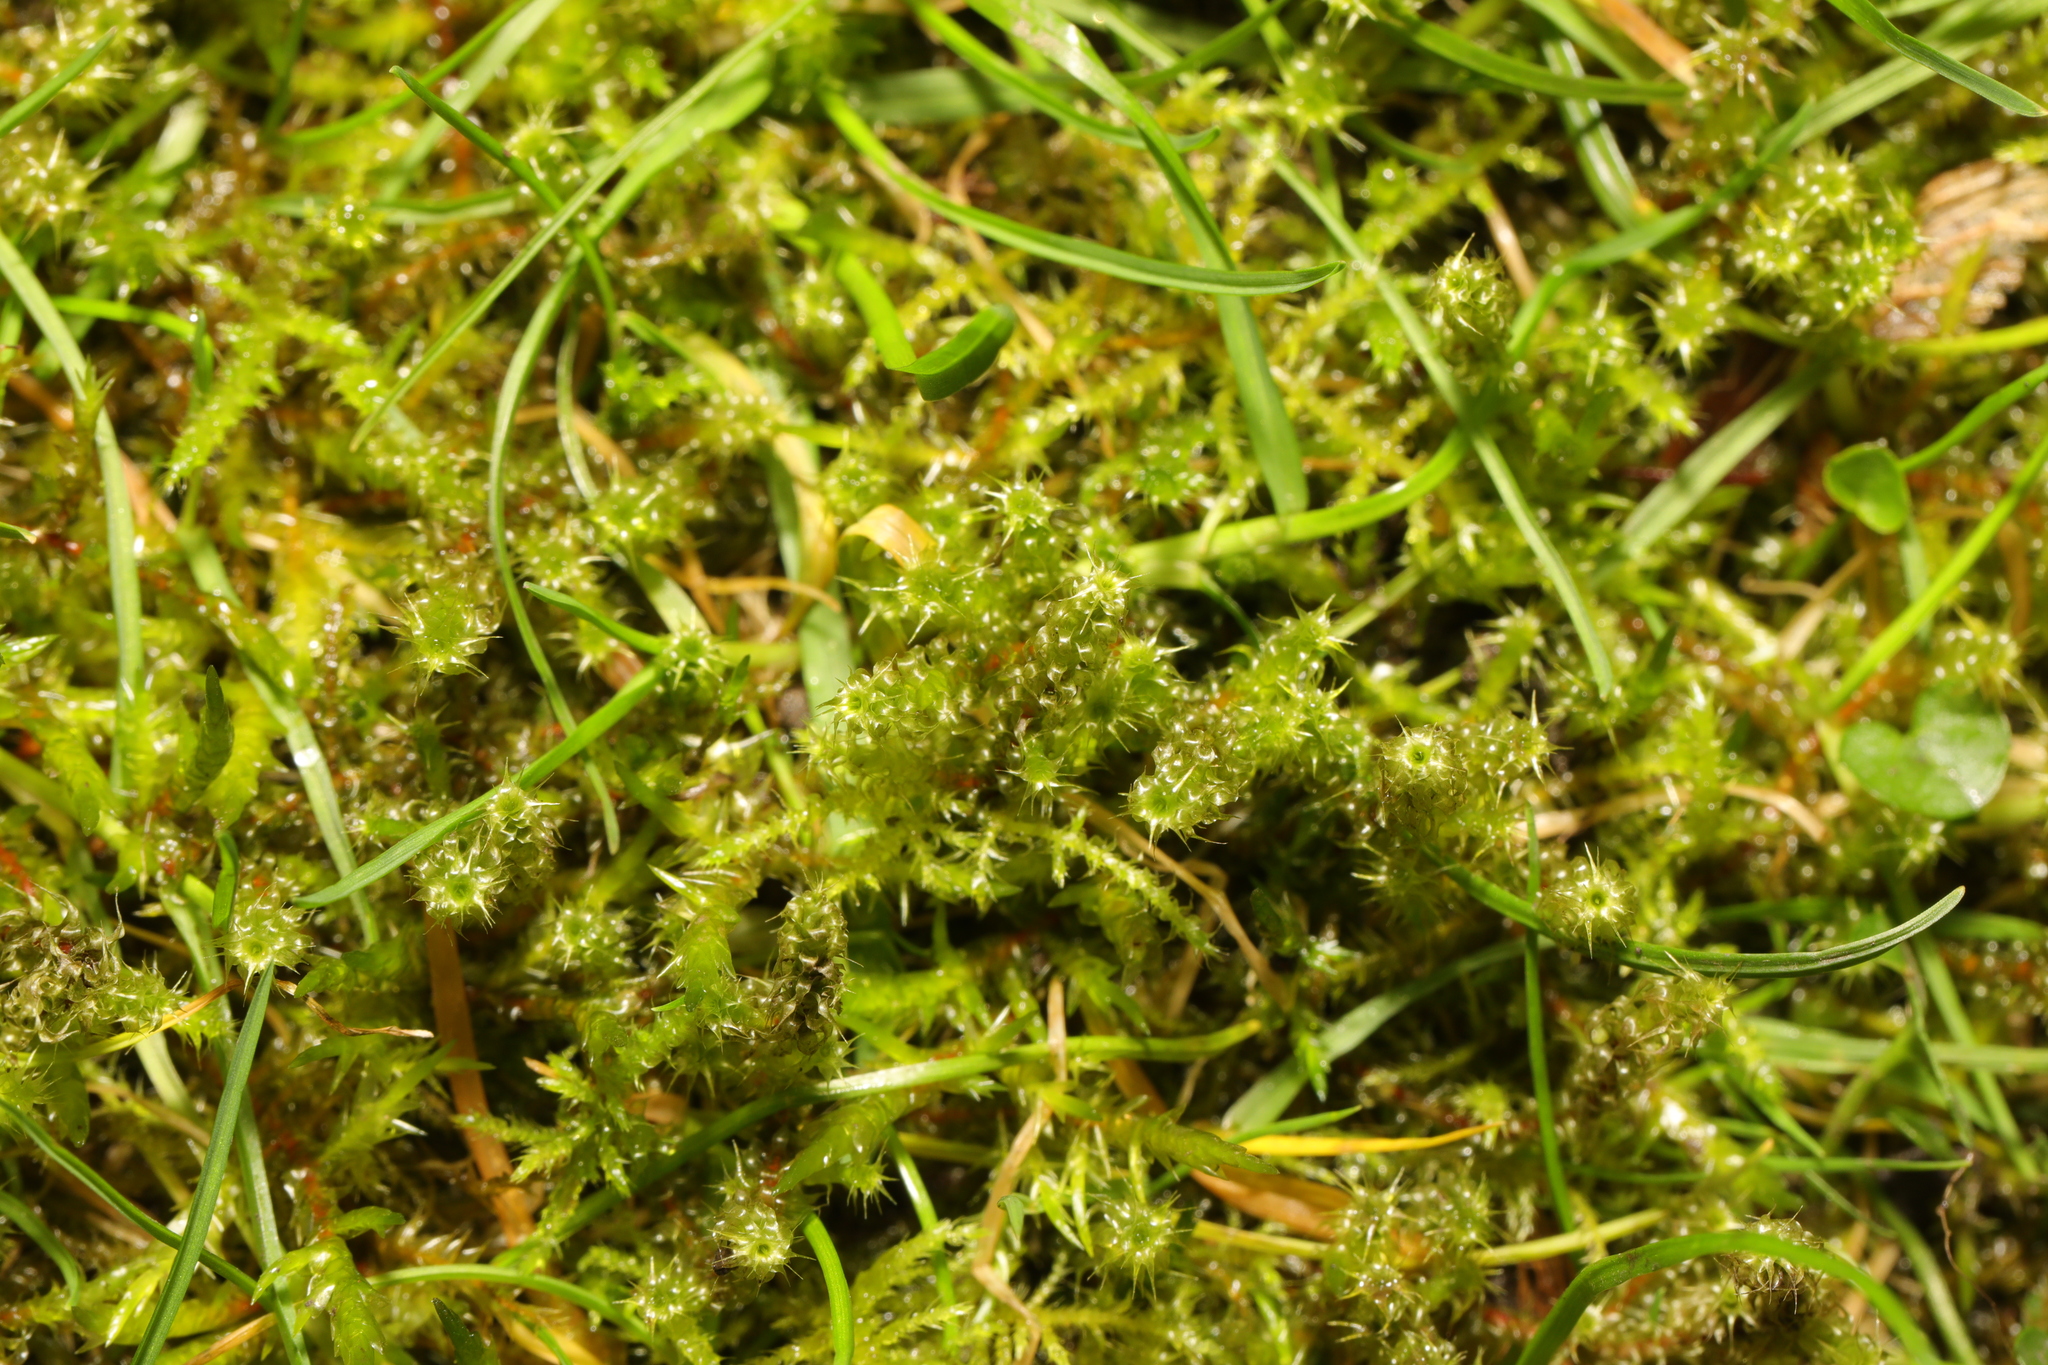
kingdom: Plantae
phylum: Bryophyta
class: Bryopsida
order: Hypnales
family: Hylocomiaceae
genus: Rhytidiadelphus
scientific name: Rhytidiadelphus squarrosus
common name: Springy turf-moss
